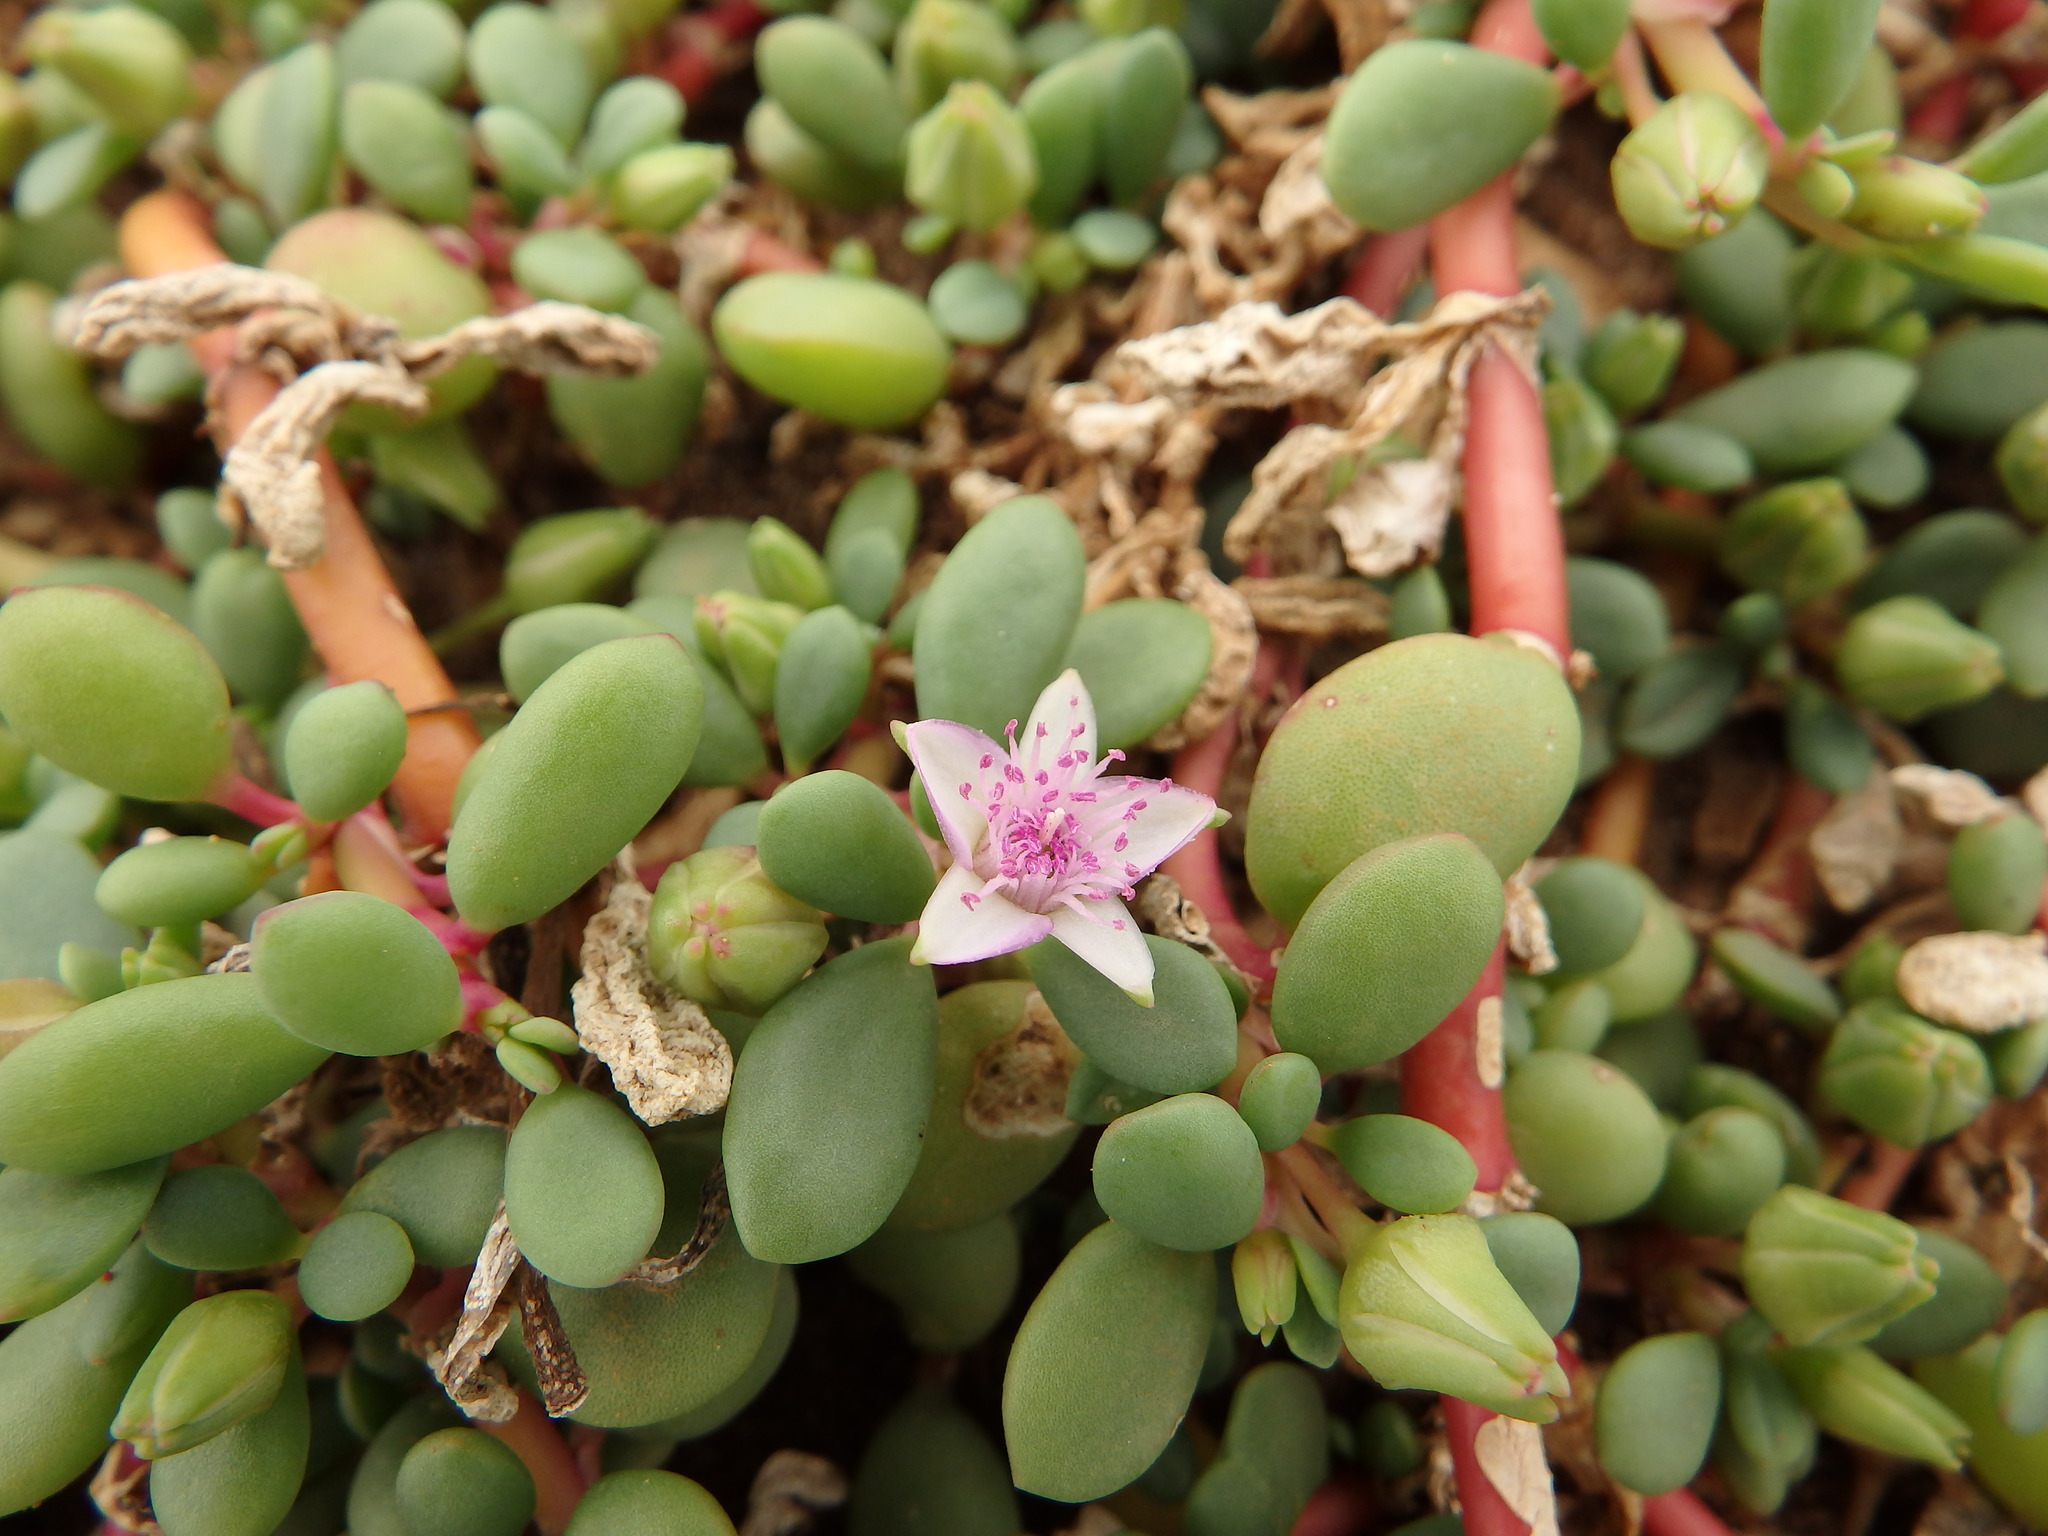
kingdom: Plantae
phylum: Tracheophyta
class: Magnoliopsida
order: Caryophyllales
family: Aizoaceae
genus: Sesuvium
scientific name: Sesuvium portulacastrum
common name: Sea-purslane
